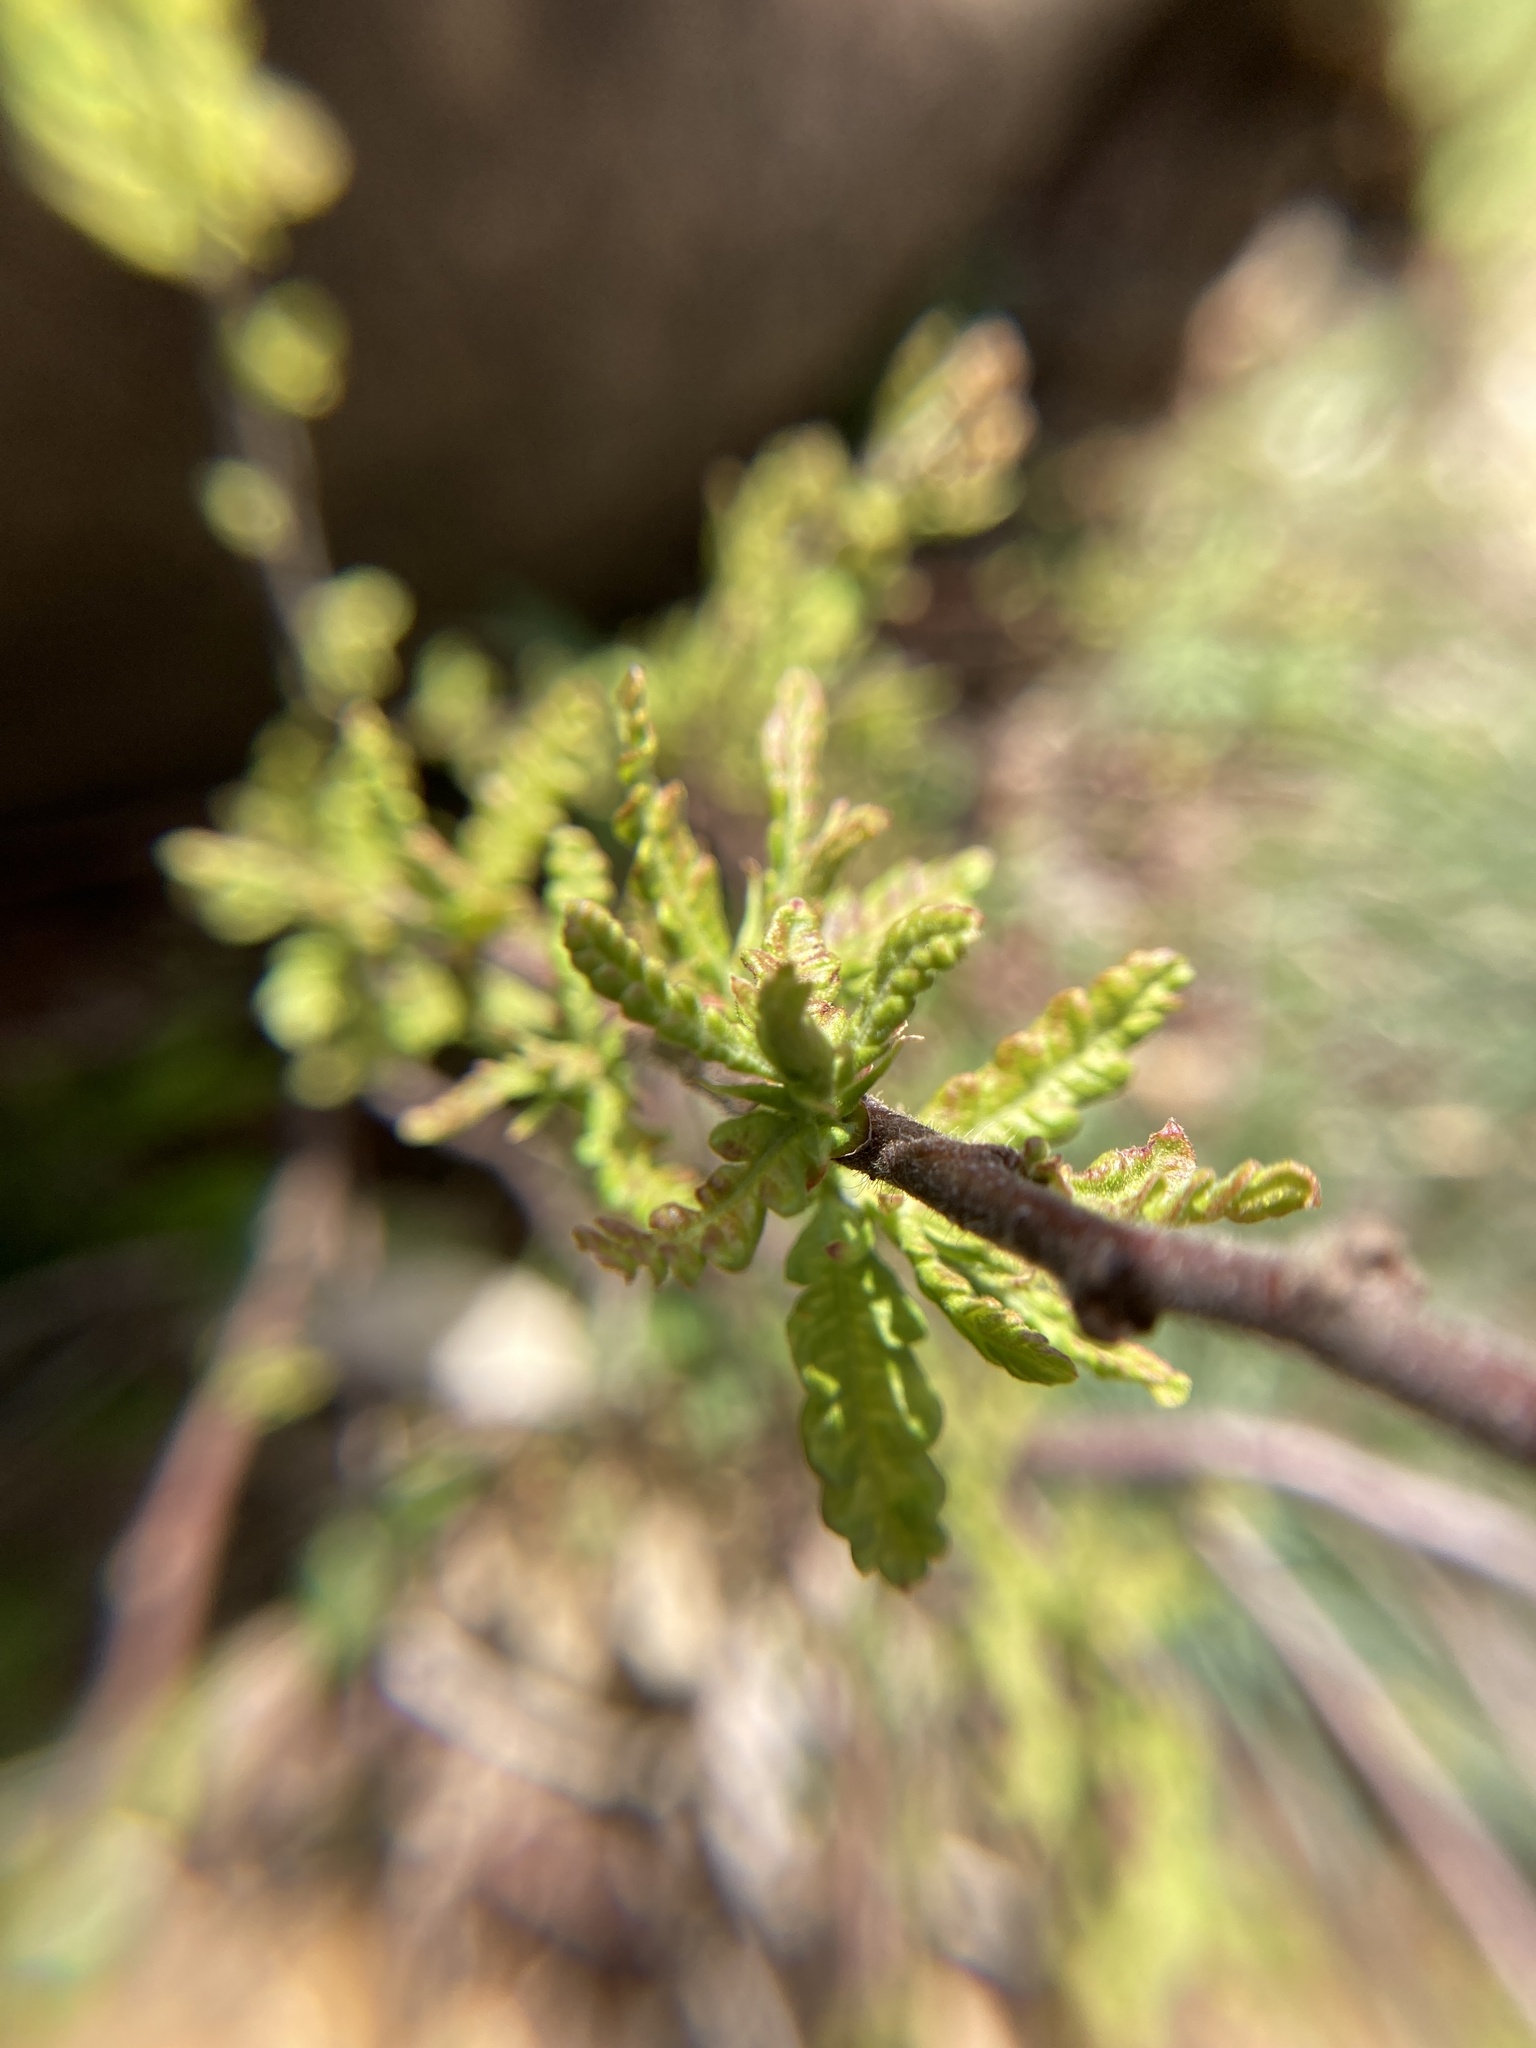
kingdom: Plantae
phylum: Tracheophyta
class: Magnoliopsida
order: Fagales
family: Myricaceae
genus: Comptonia
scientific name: Comptonia peregrina
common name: Sweet-fern
